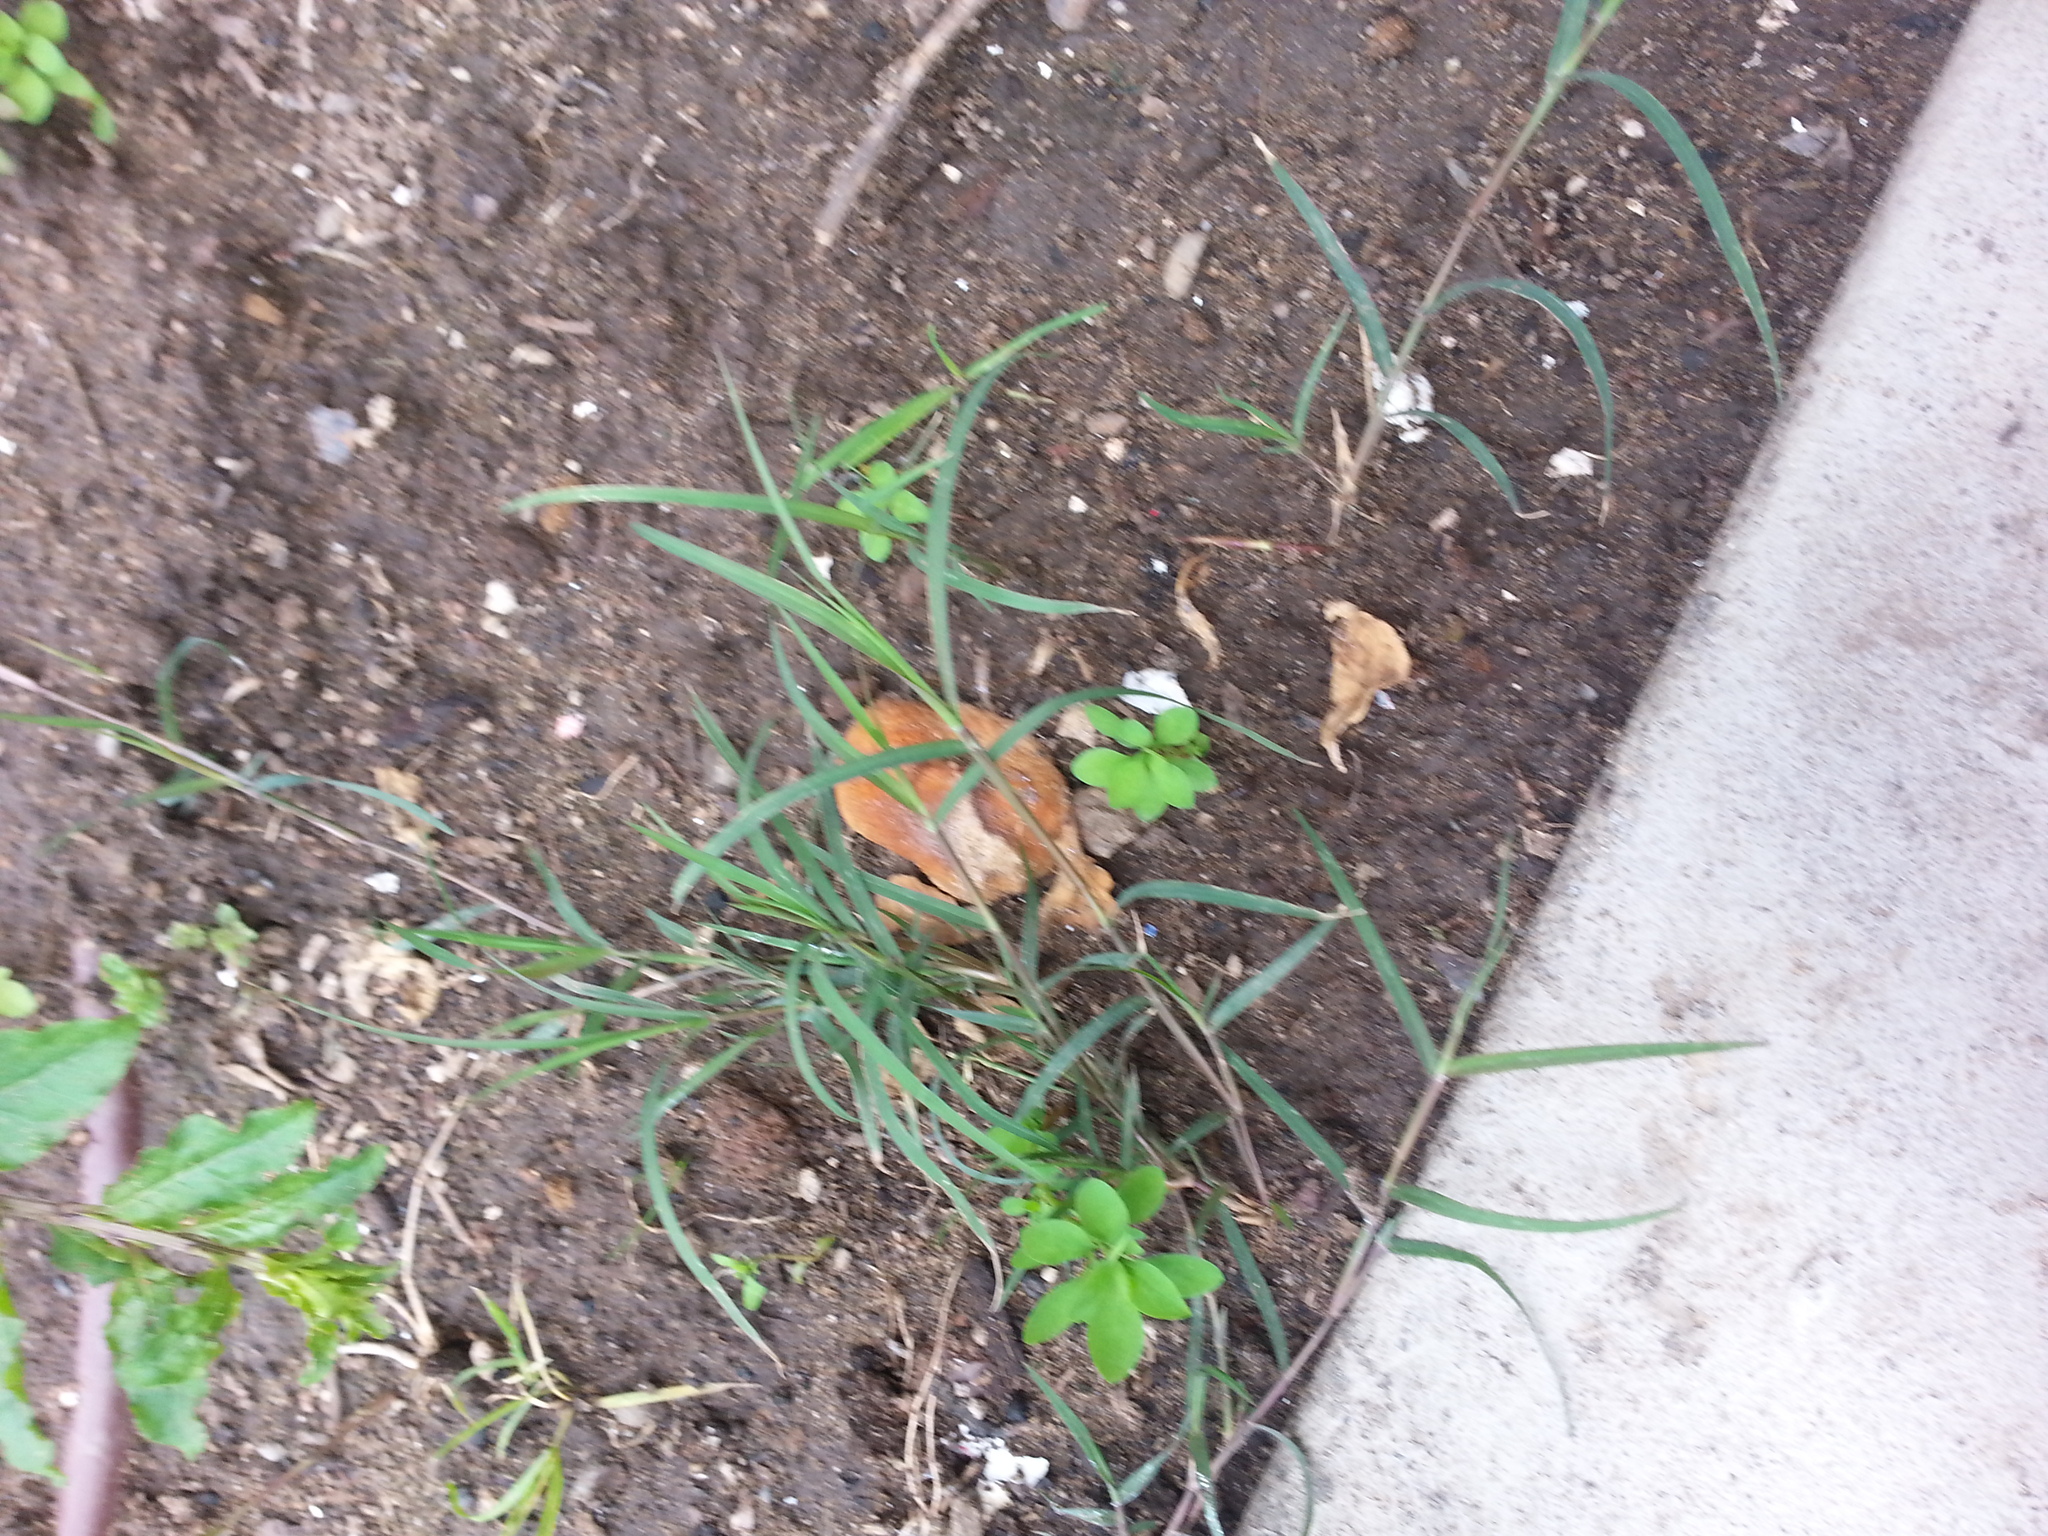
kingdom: Plantae
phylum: Tracheophyta
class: Liliopsida
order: Poales
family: Poaceae
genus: Cynodon
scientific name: Cynodon dactylon
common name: Bermuda grass
